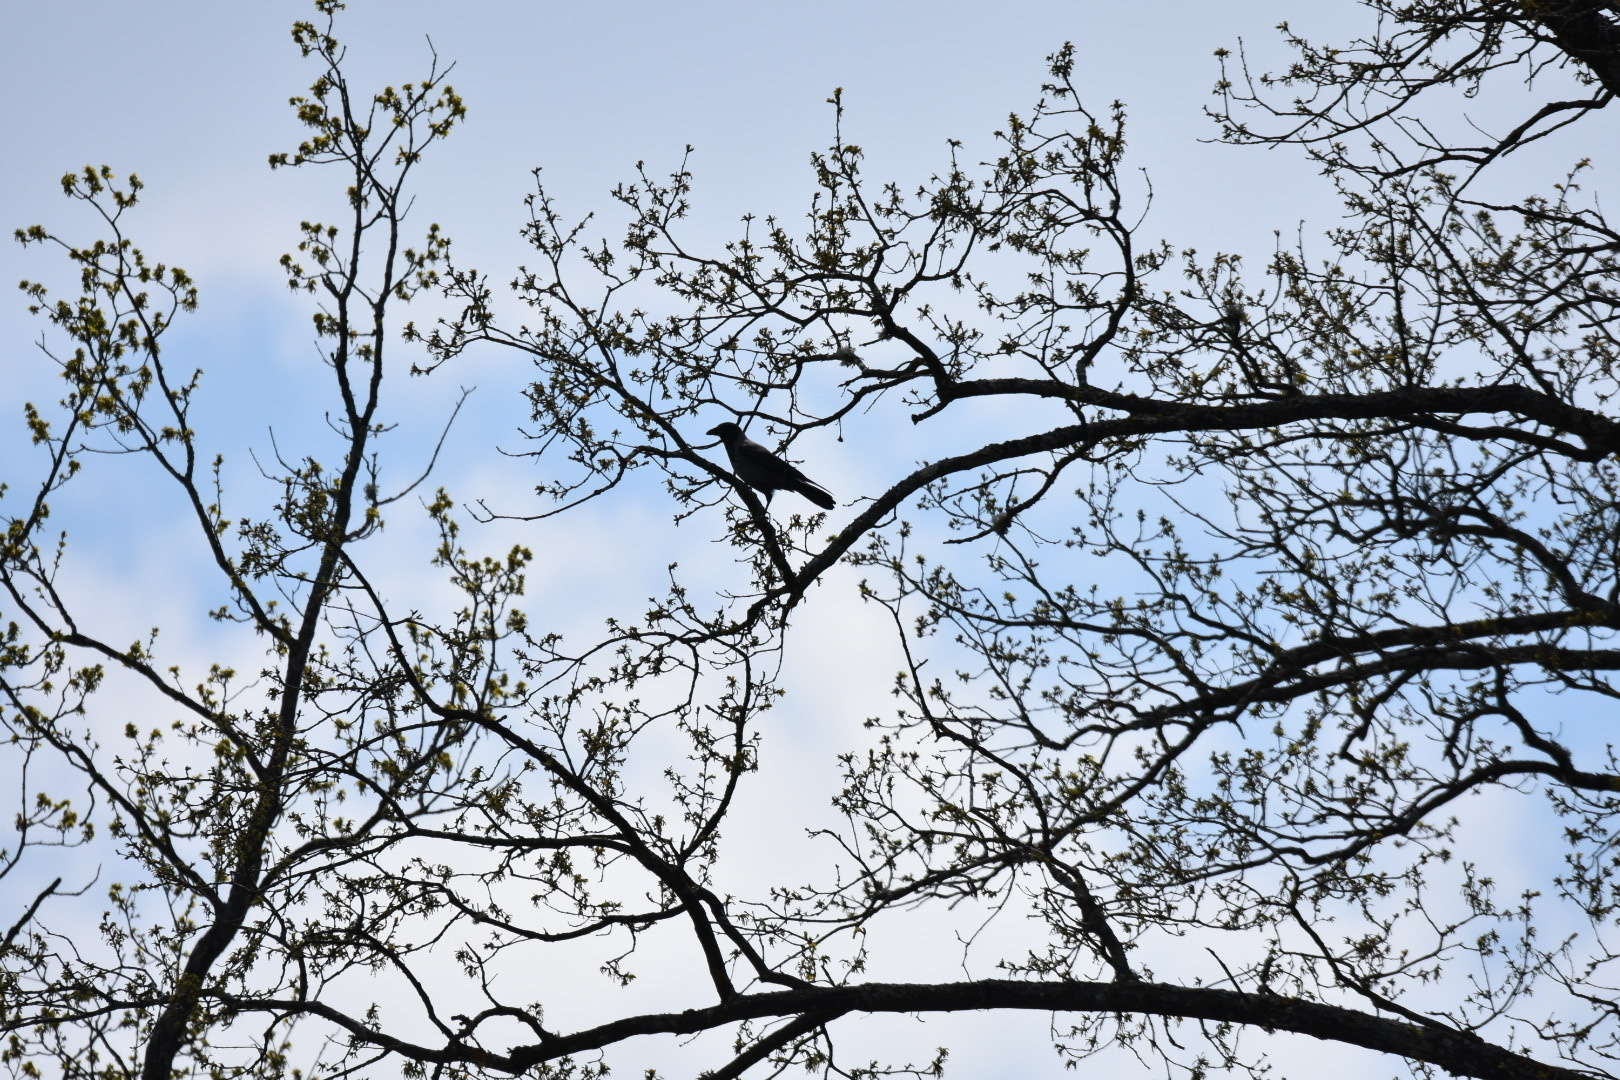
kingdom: Animalia
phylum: Chordata
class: Aves
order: Passeriformes
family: Corvidae
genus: Corvus
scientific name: Corvus cornix
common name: Hooded crow
